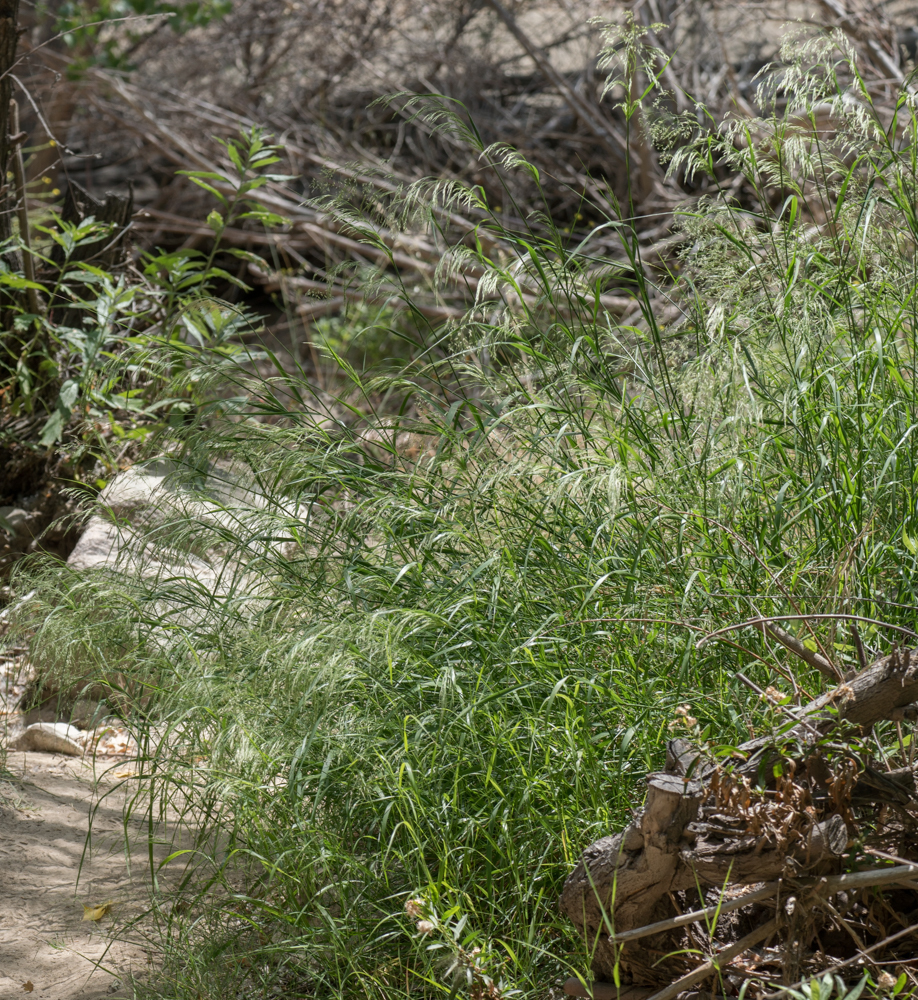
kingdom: Plantae
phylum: Tracheophyta
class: Liliopsida
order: Poales
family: Poaceae
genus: Oloptum
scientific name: Oloptum miliaceum
